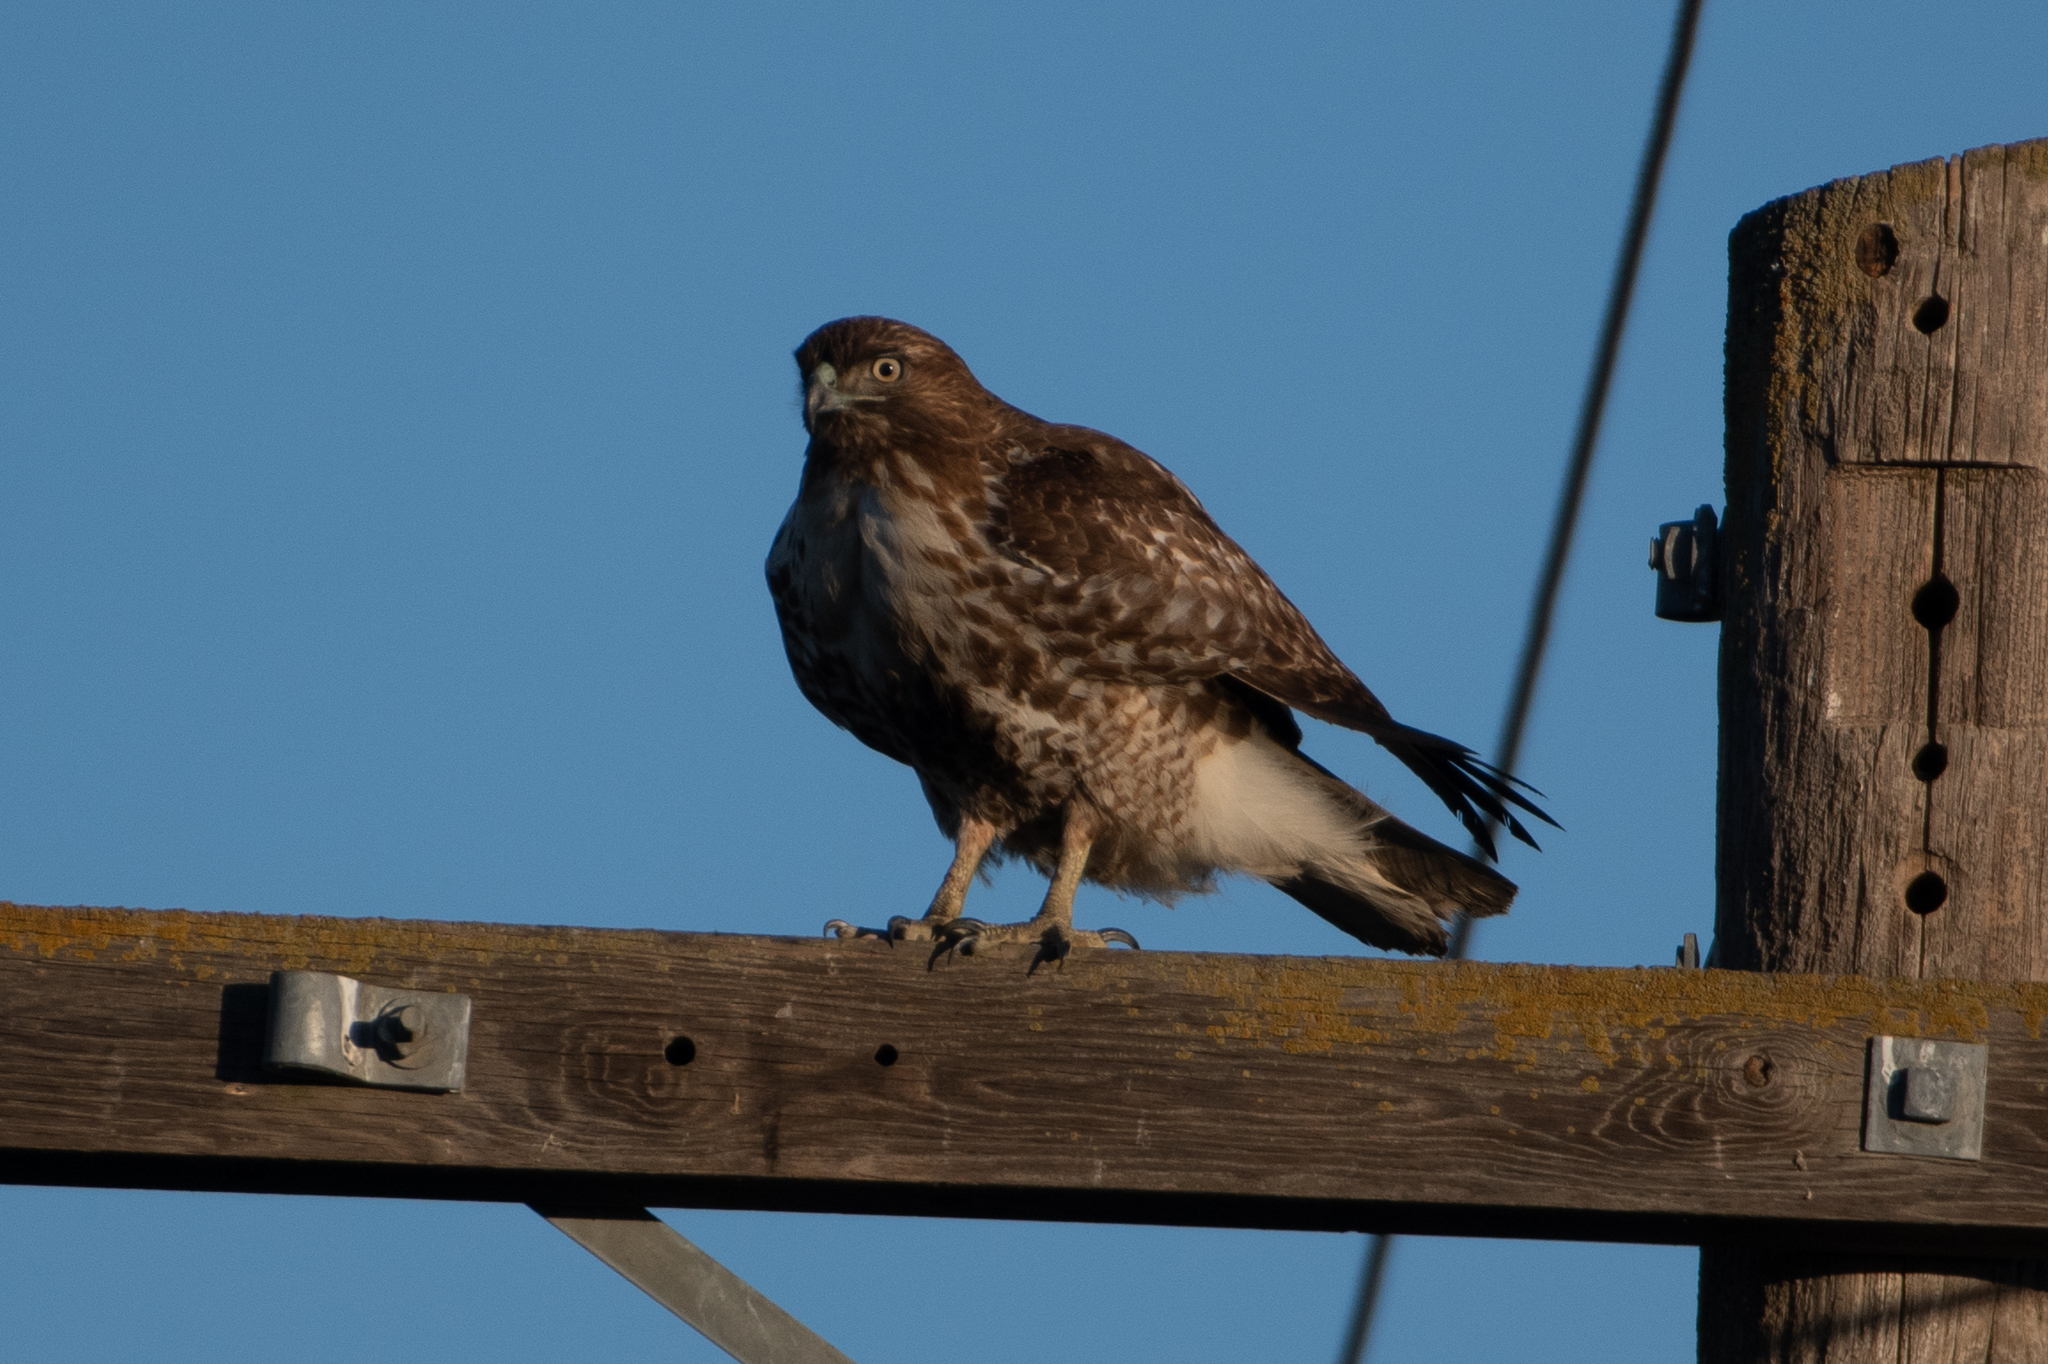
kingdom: Animalia
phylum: Chordata
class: Aves
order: Accipitriformes
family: Accipitridae
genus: Buteo
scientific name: Buteo jamaicensis
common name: Red-tailed hawk
